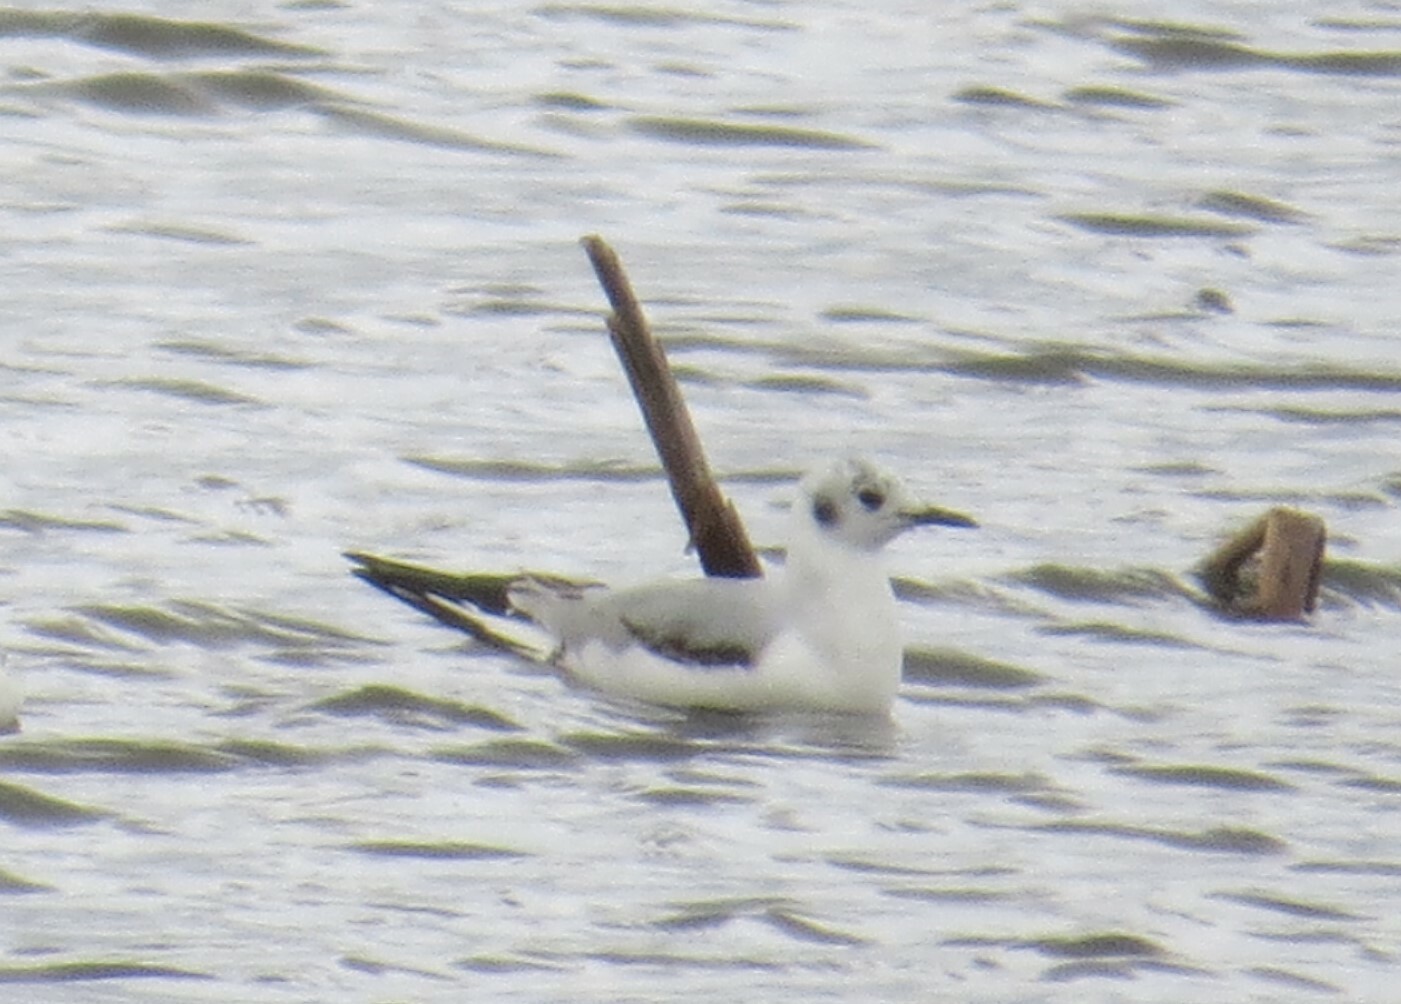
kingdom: Animalia
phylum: Chordata
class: Aves
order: Charadriiformes
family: Laridae
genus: Chroicocephalus
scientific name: Chroicocephalus philadelphia
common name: Bonaparte's gull
